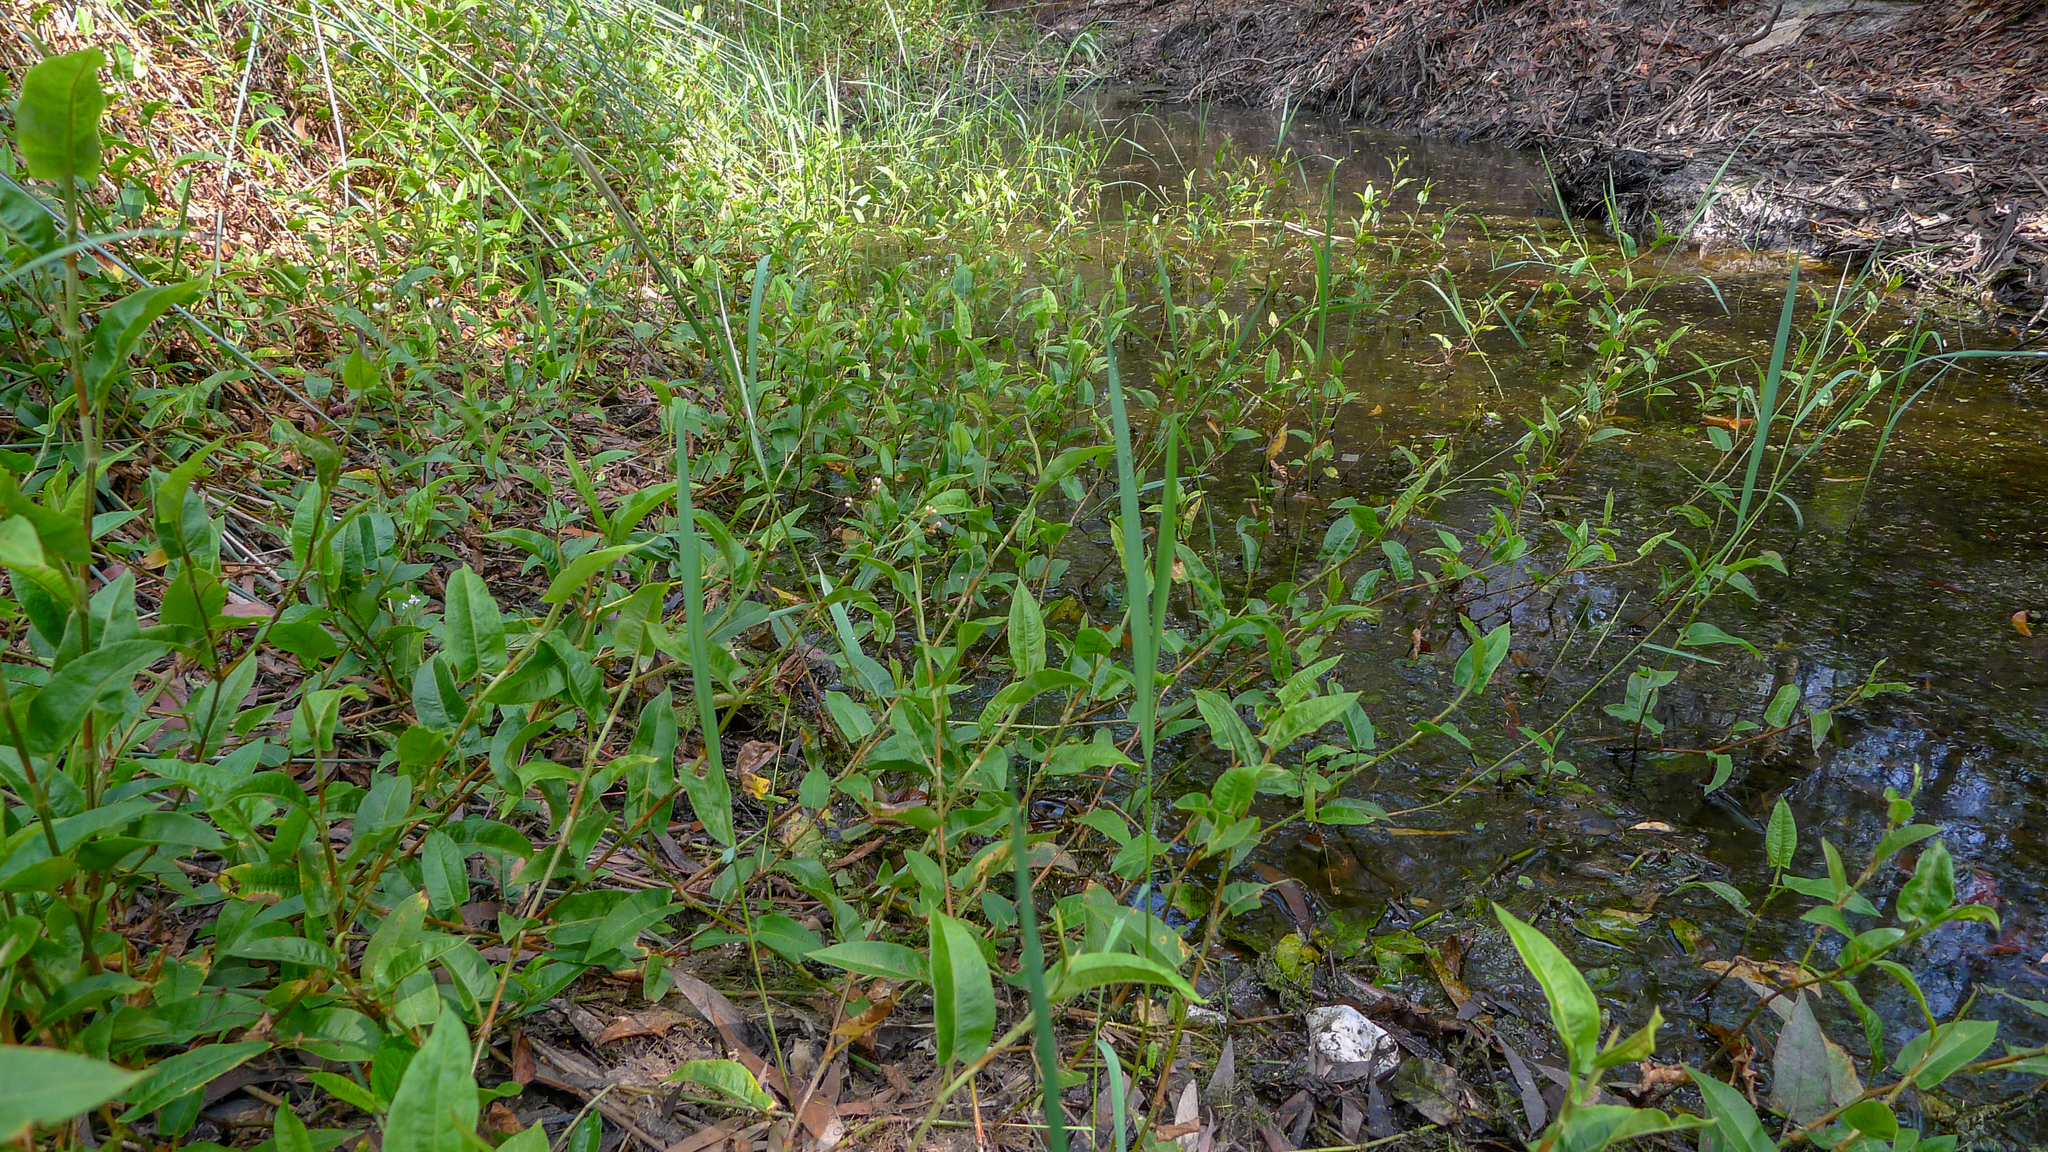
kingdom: Plantae
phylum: Tracheophyta
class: Magnoliopsida
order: Caryophyllales
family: Polygonaceae
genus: Persicaria
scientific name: Persicaria strigosa
